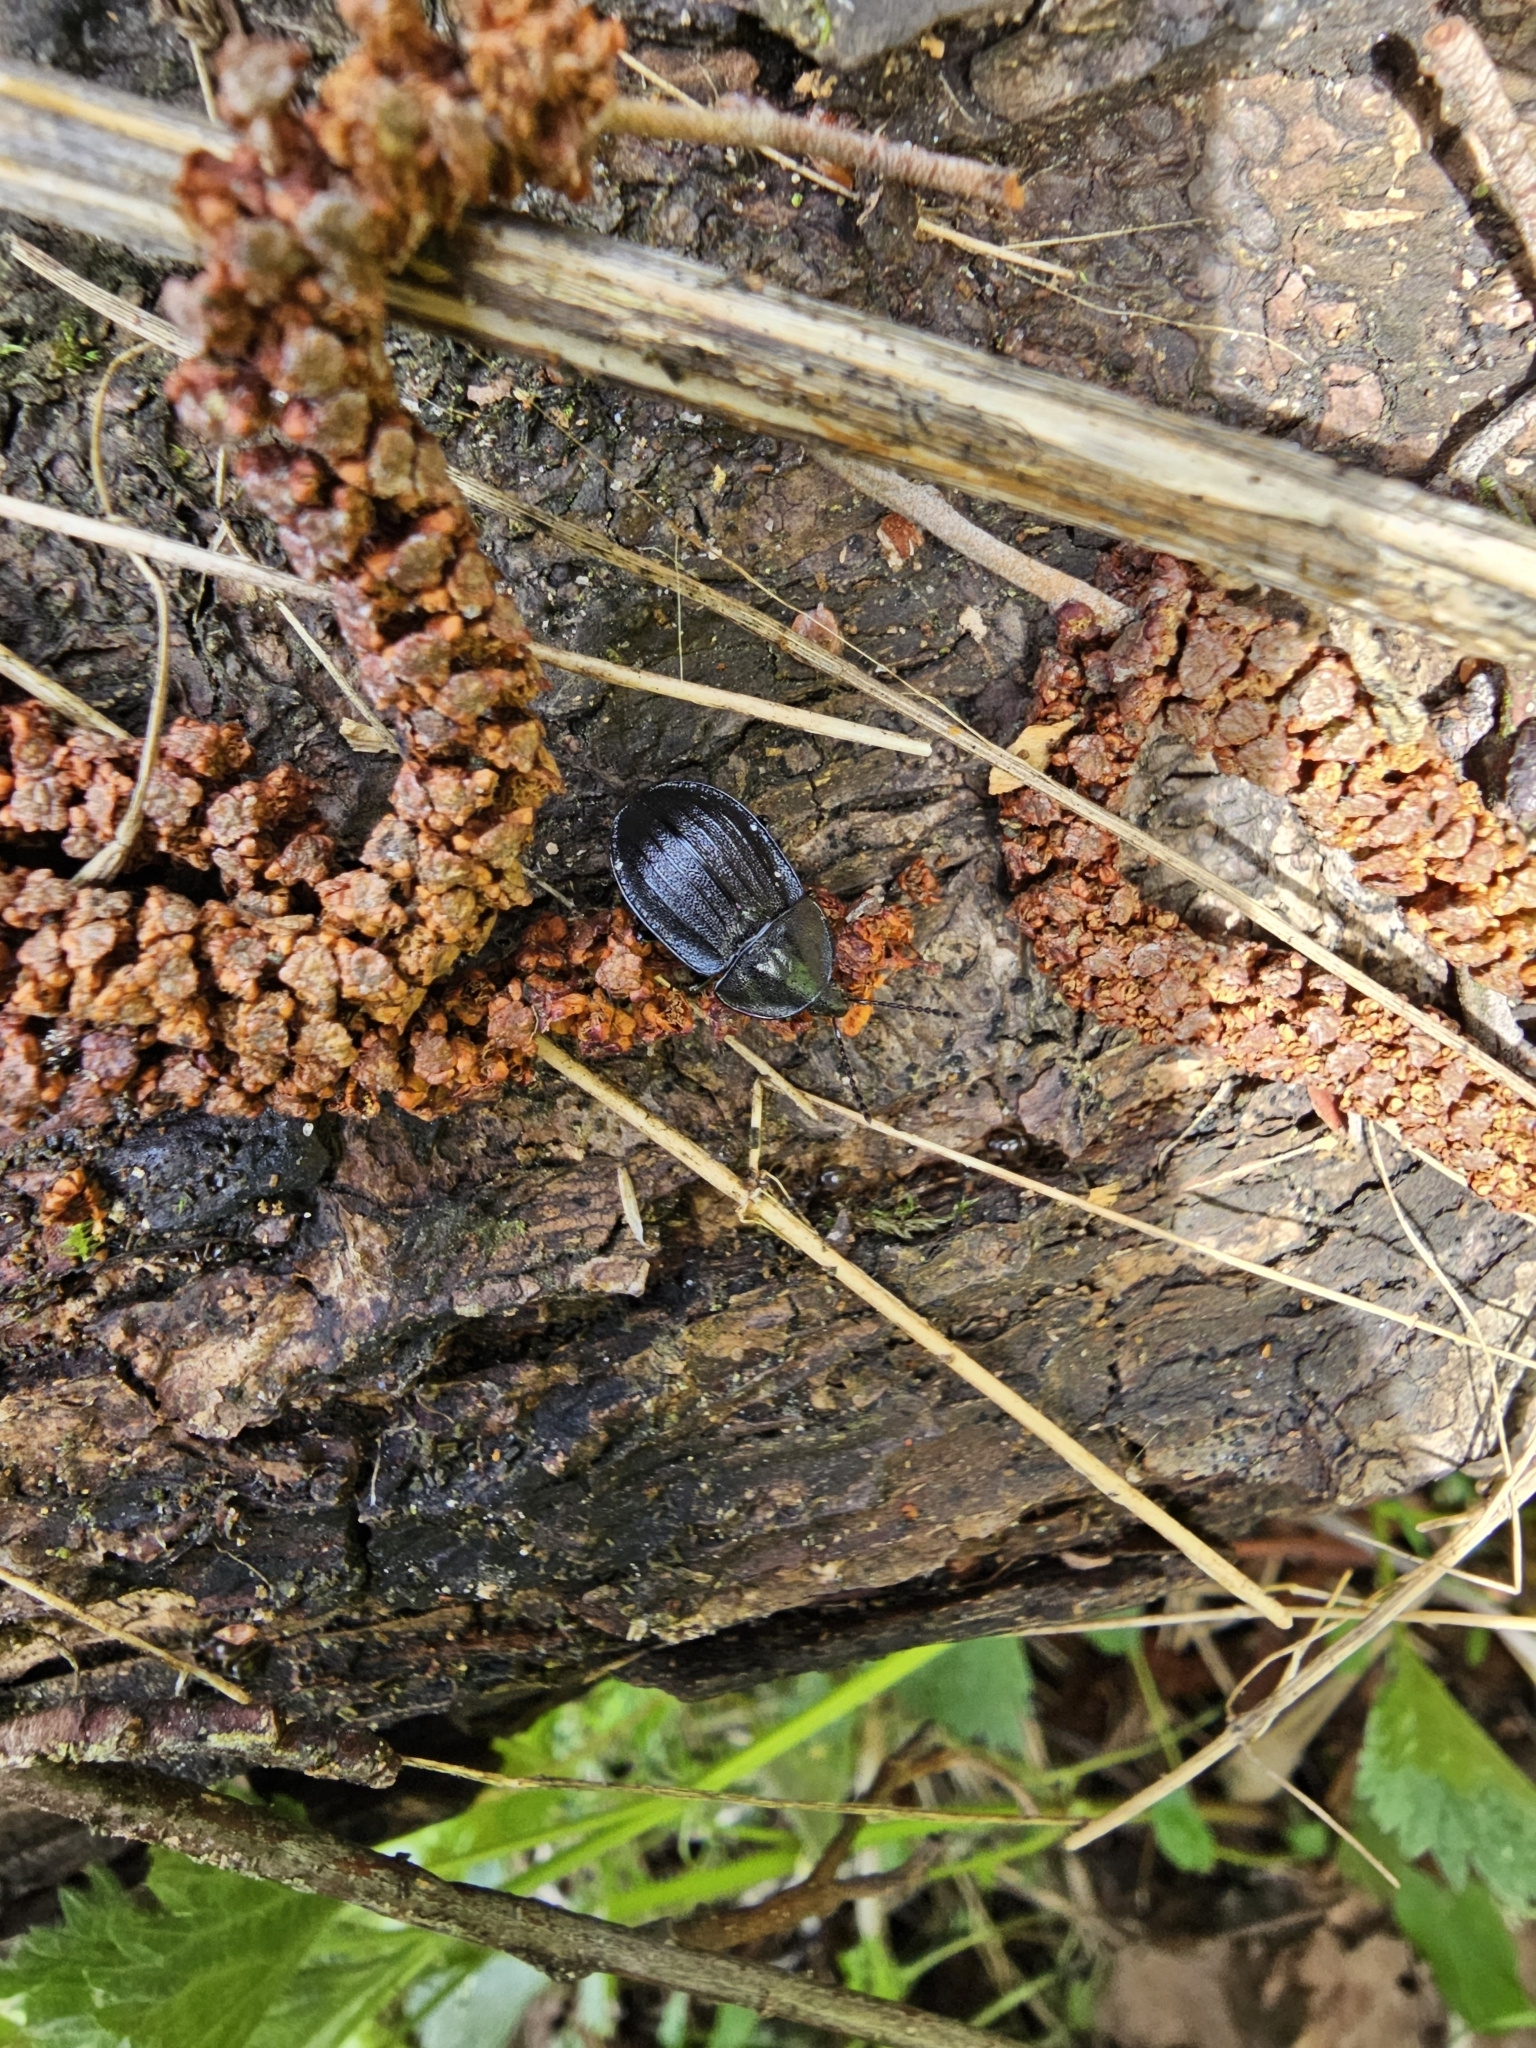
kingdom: Animalia
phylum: Arthropoda
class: Insecta
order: Coleoptera
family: Staphylinidae
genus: Silpha
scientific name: Silpha atrata
